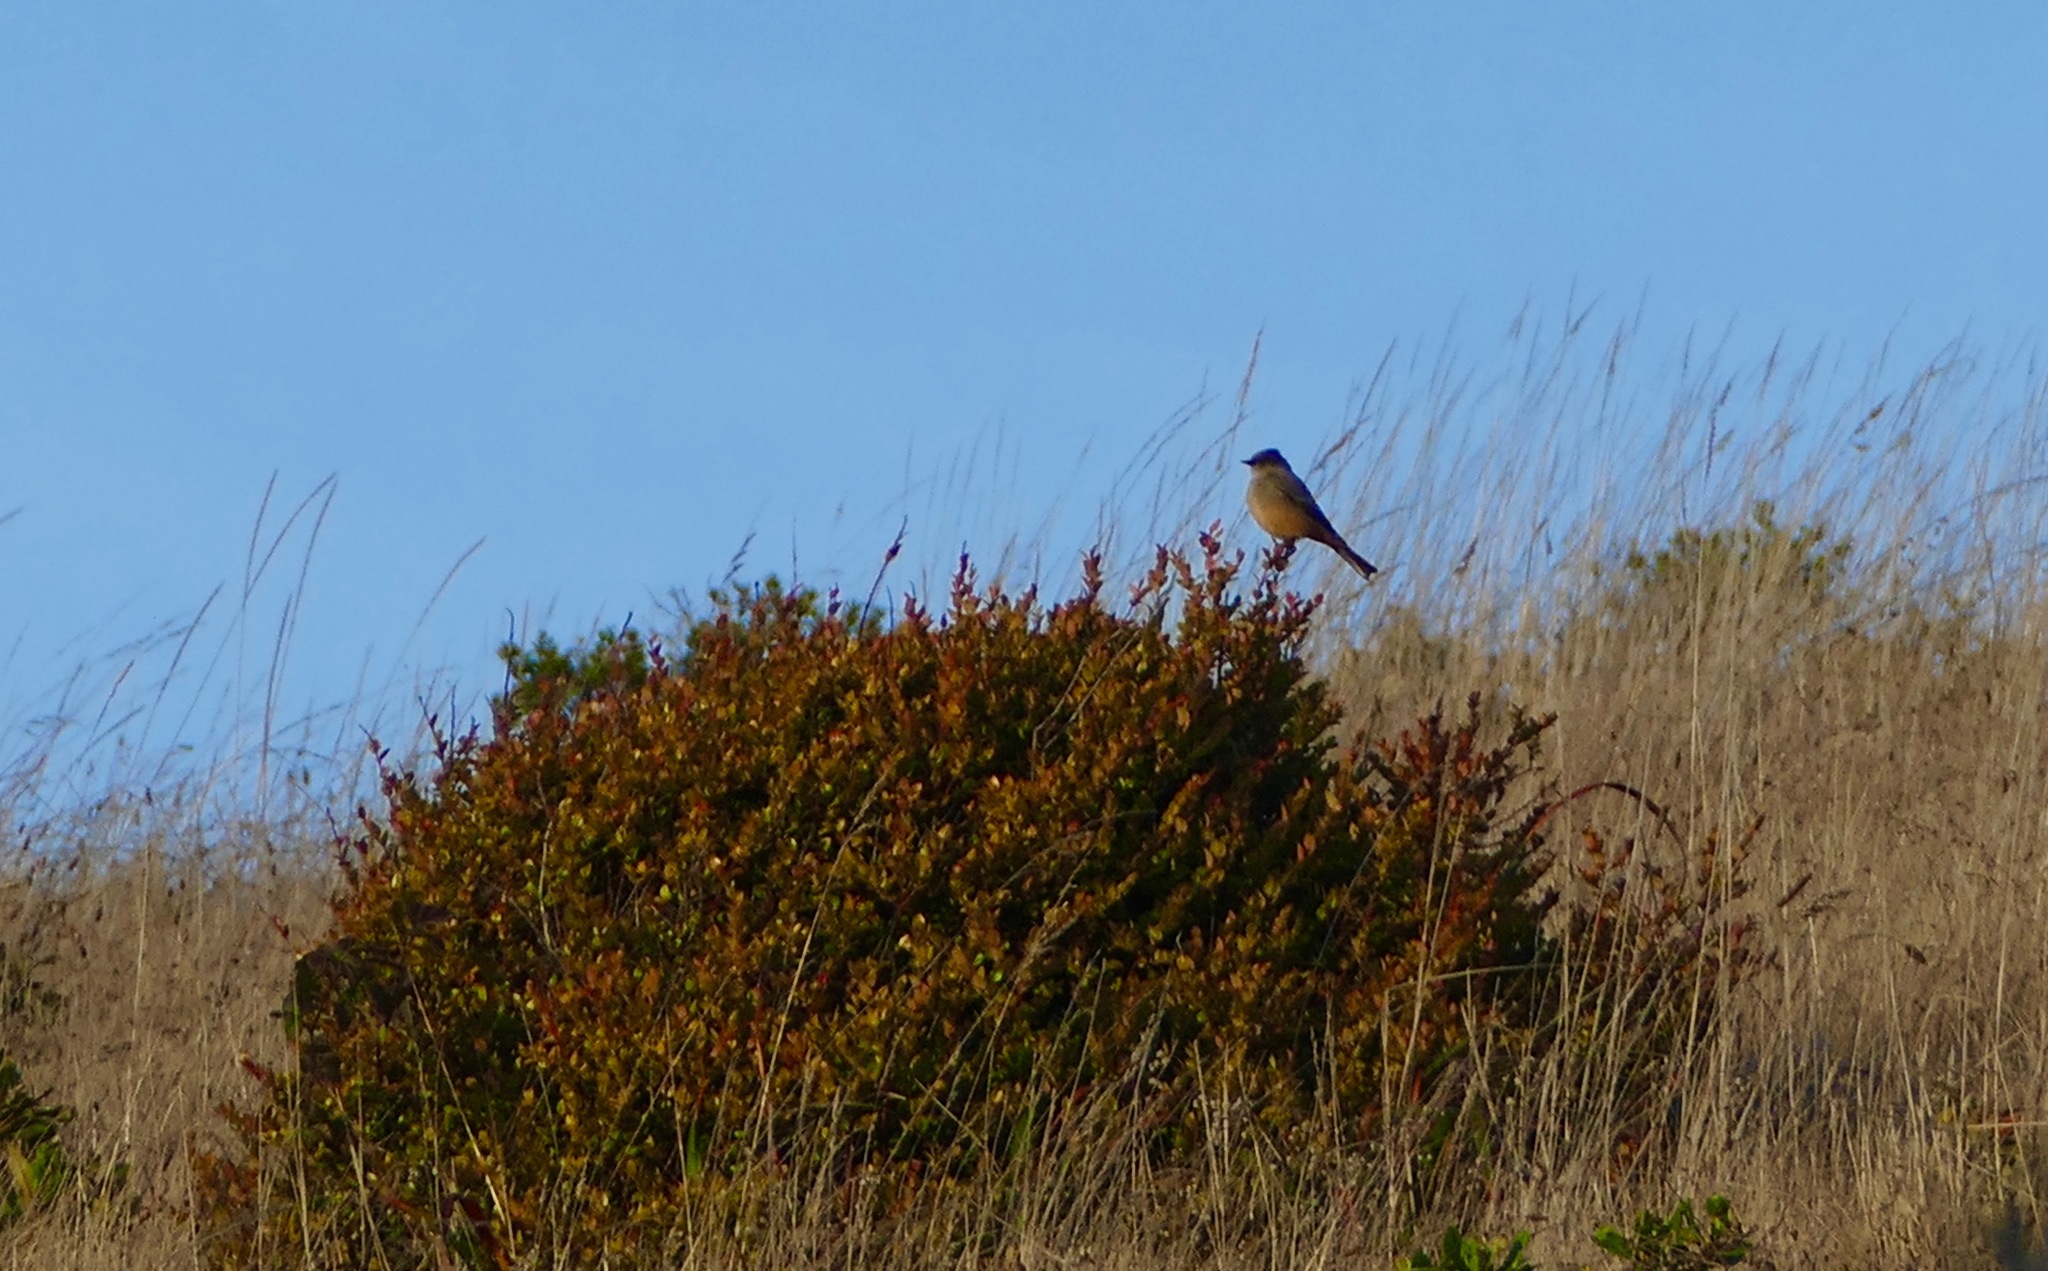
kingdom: Animalia
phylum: Chordata
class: Aves
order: Passeriformes
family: Tyrannidae
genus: Sayornis
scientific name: Sayornis saya
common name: Say's phoebe
